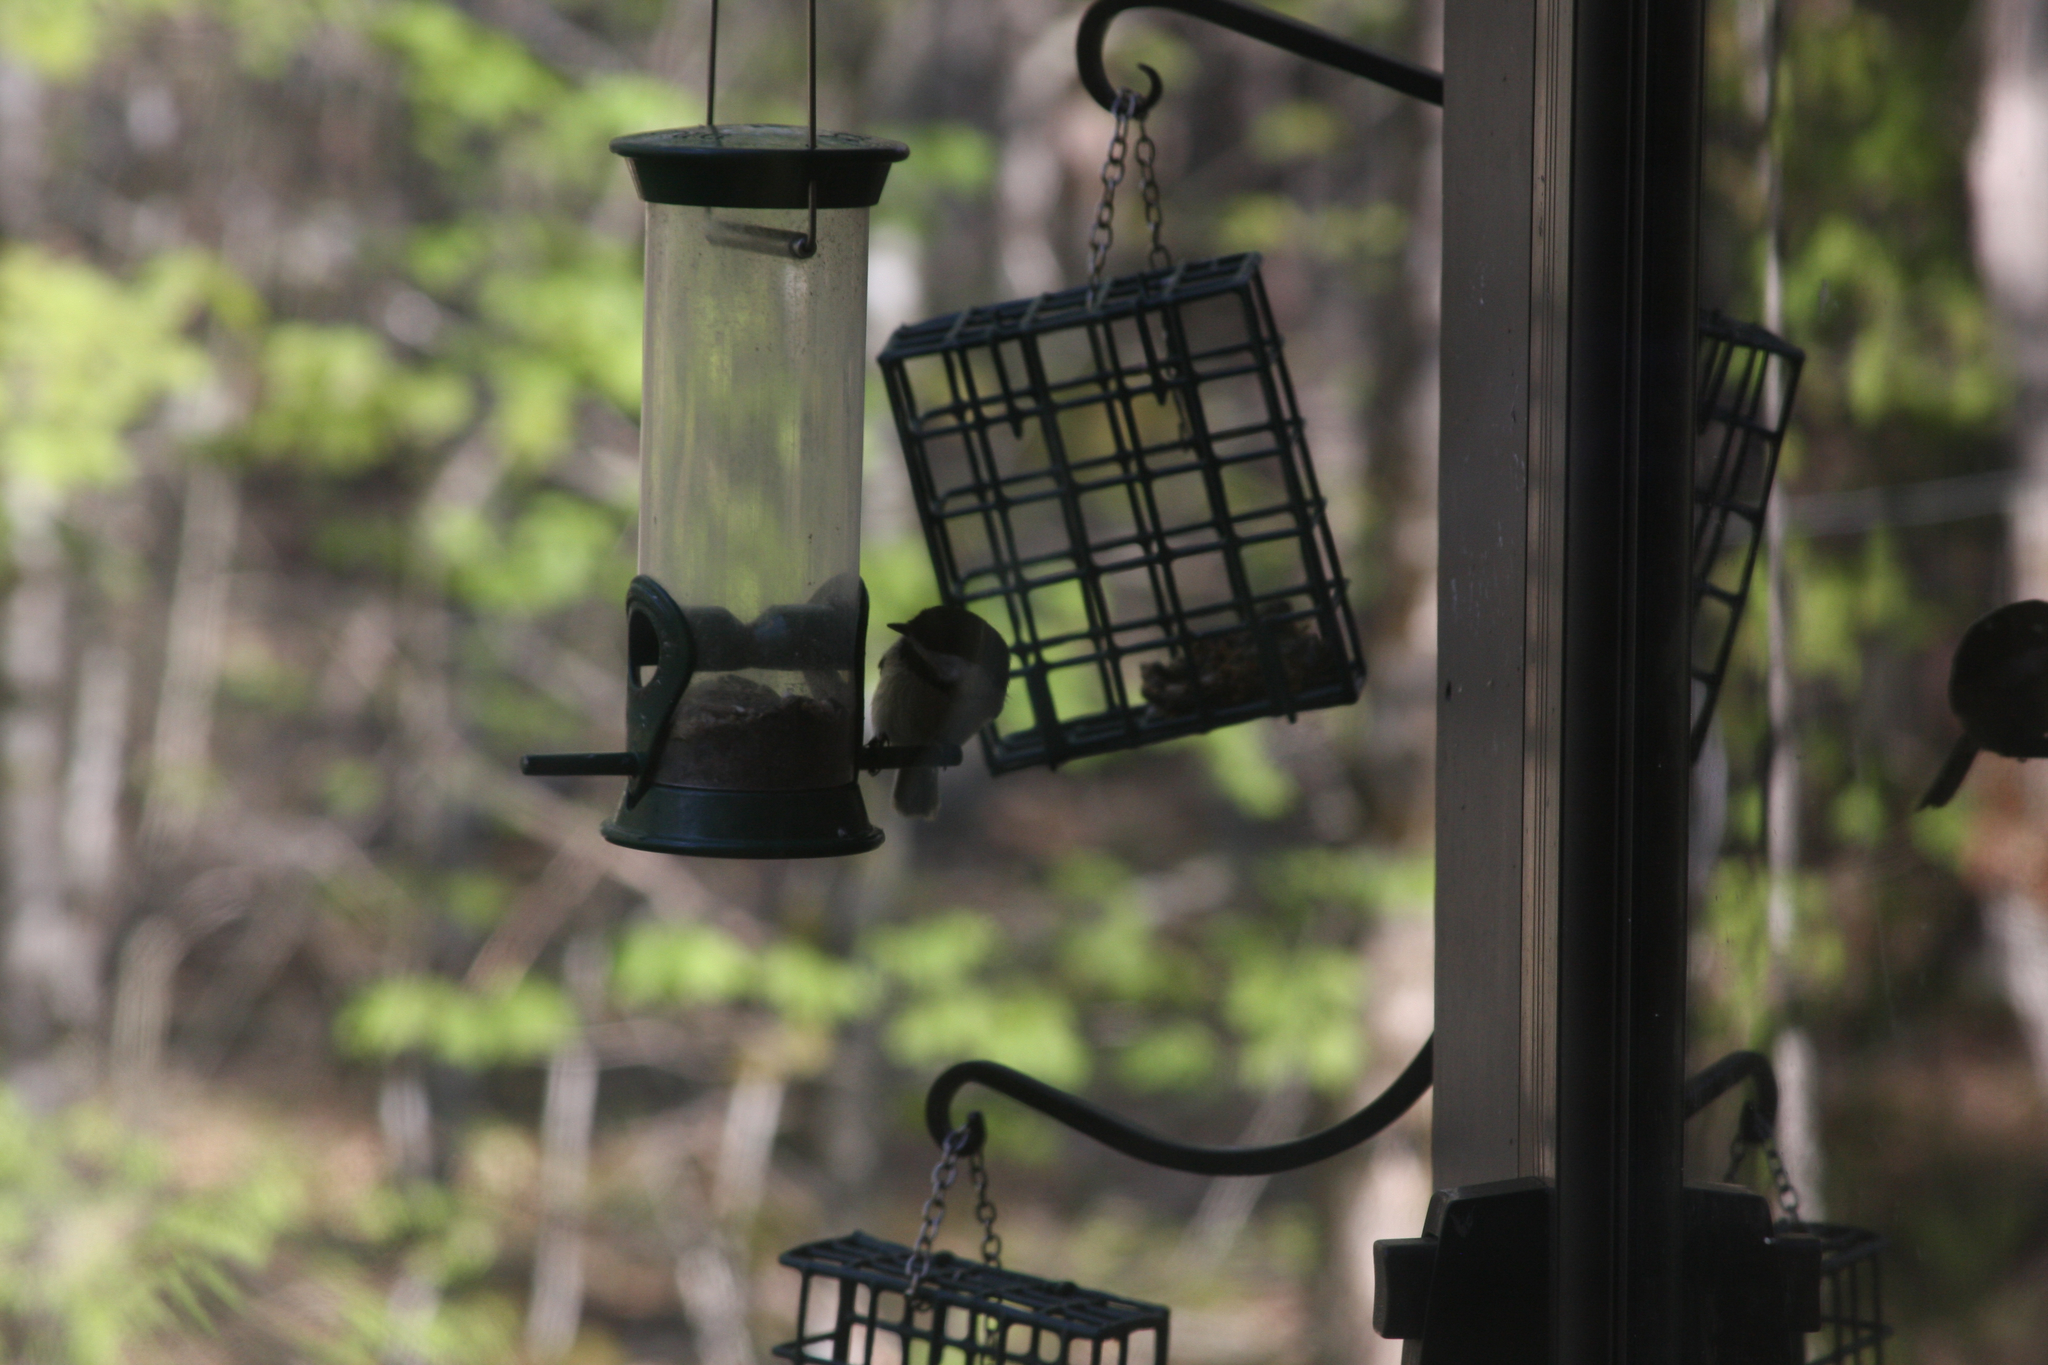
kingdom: Animalia
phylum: Chordata
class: Aves
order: Passeriformes
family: Paridae
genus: Poecile
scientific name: Poecile atricapillus
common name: Black-capped chickadee
